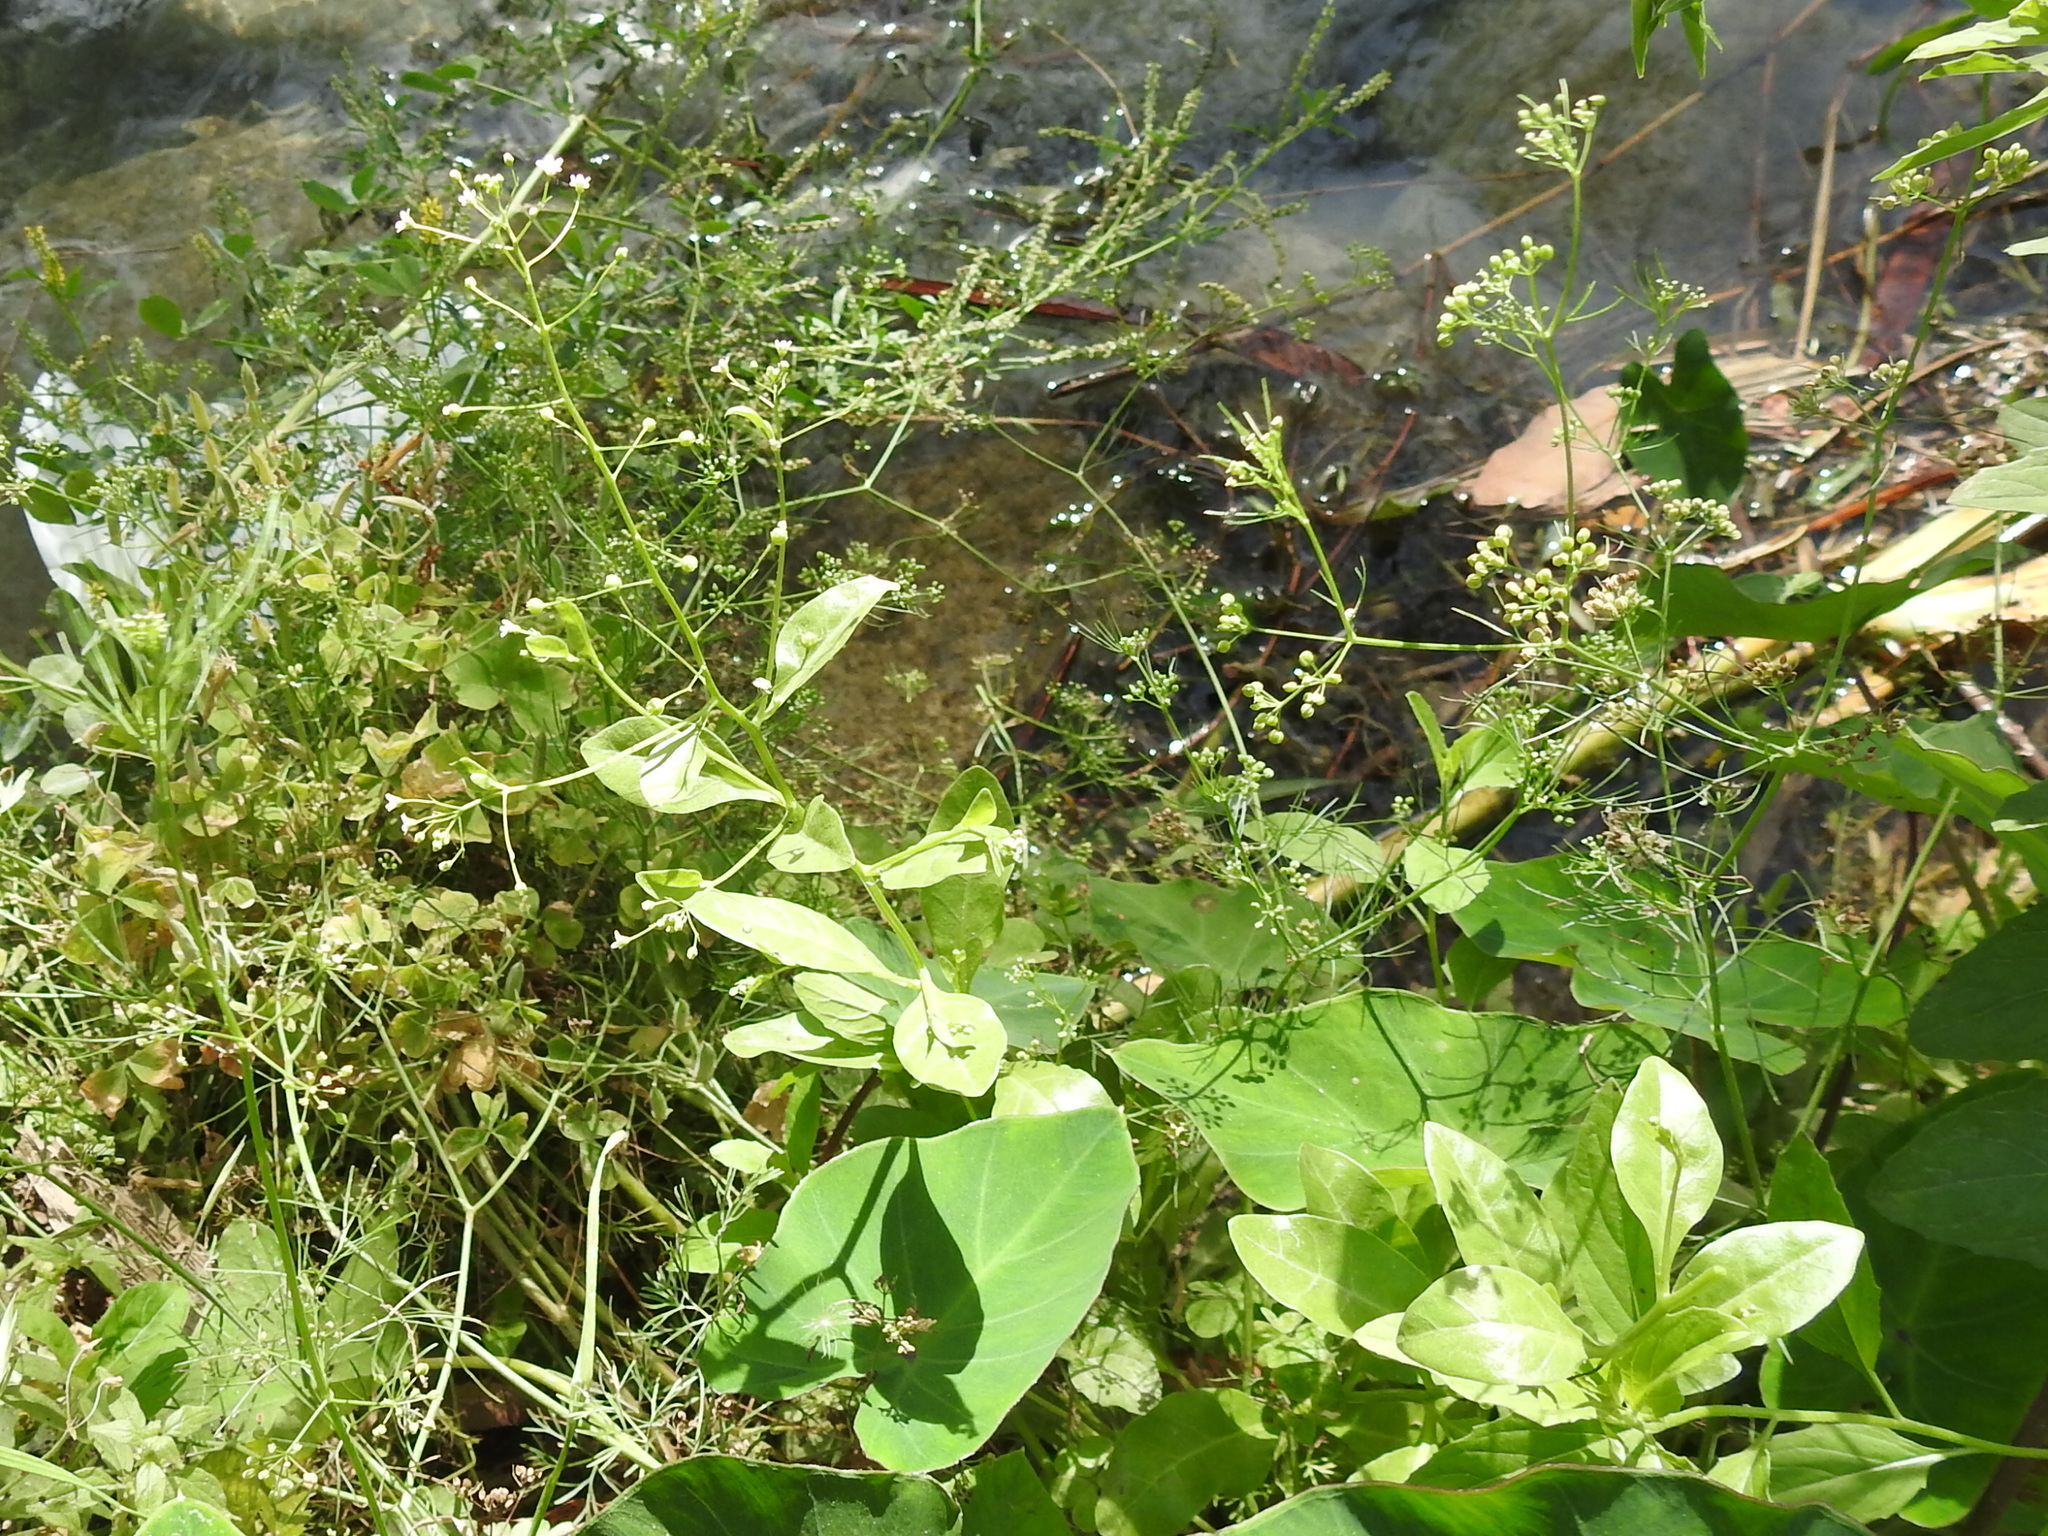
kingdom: Plantae
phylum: Tracheophyta
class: Magnoliopsida
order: Ericales
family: Primulaceae
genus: Samolus
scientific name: Samolus parviflorus
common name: False water pimpernel
